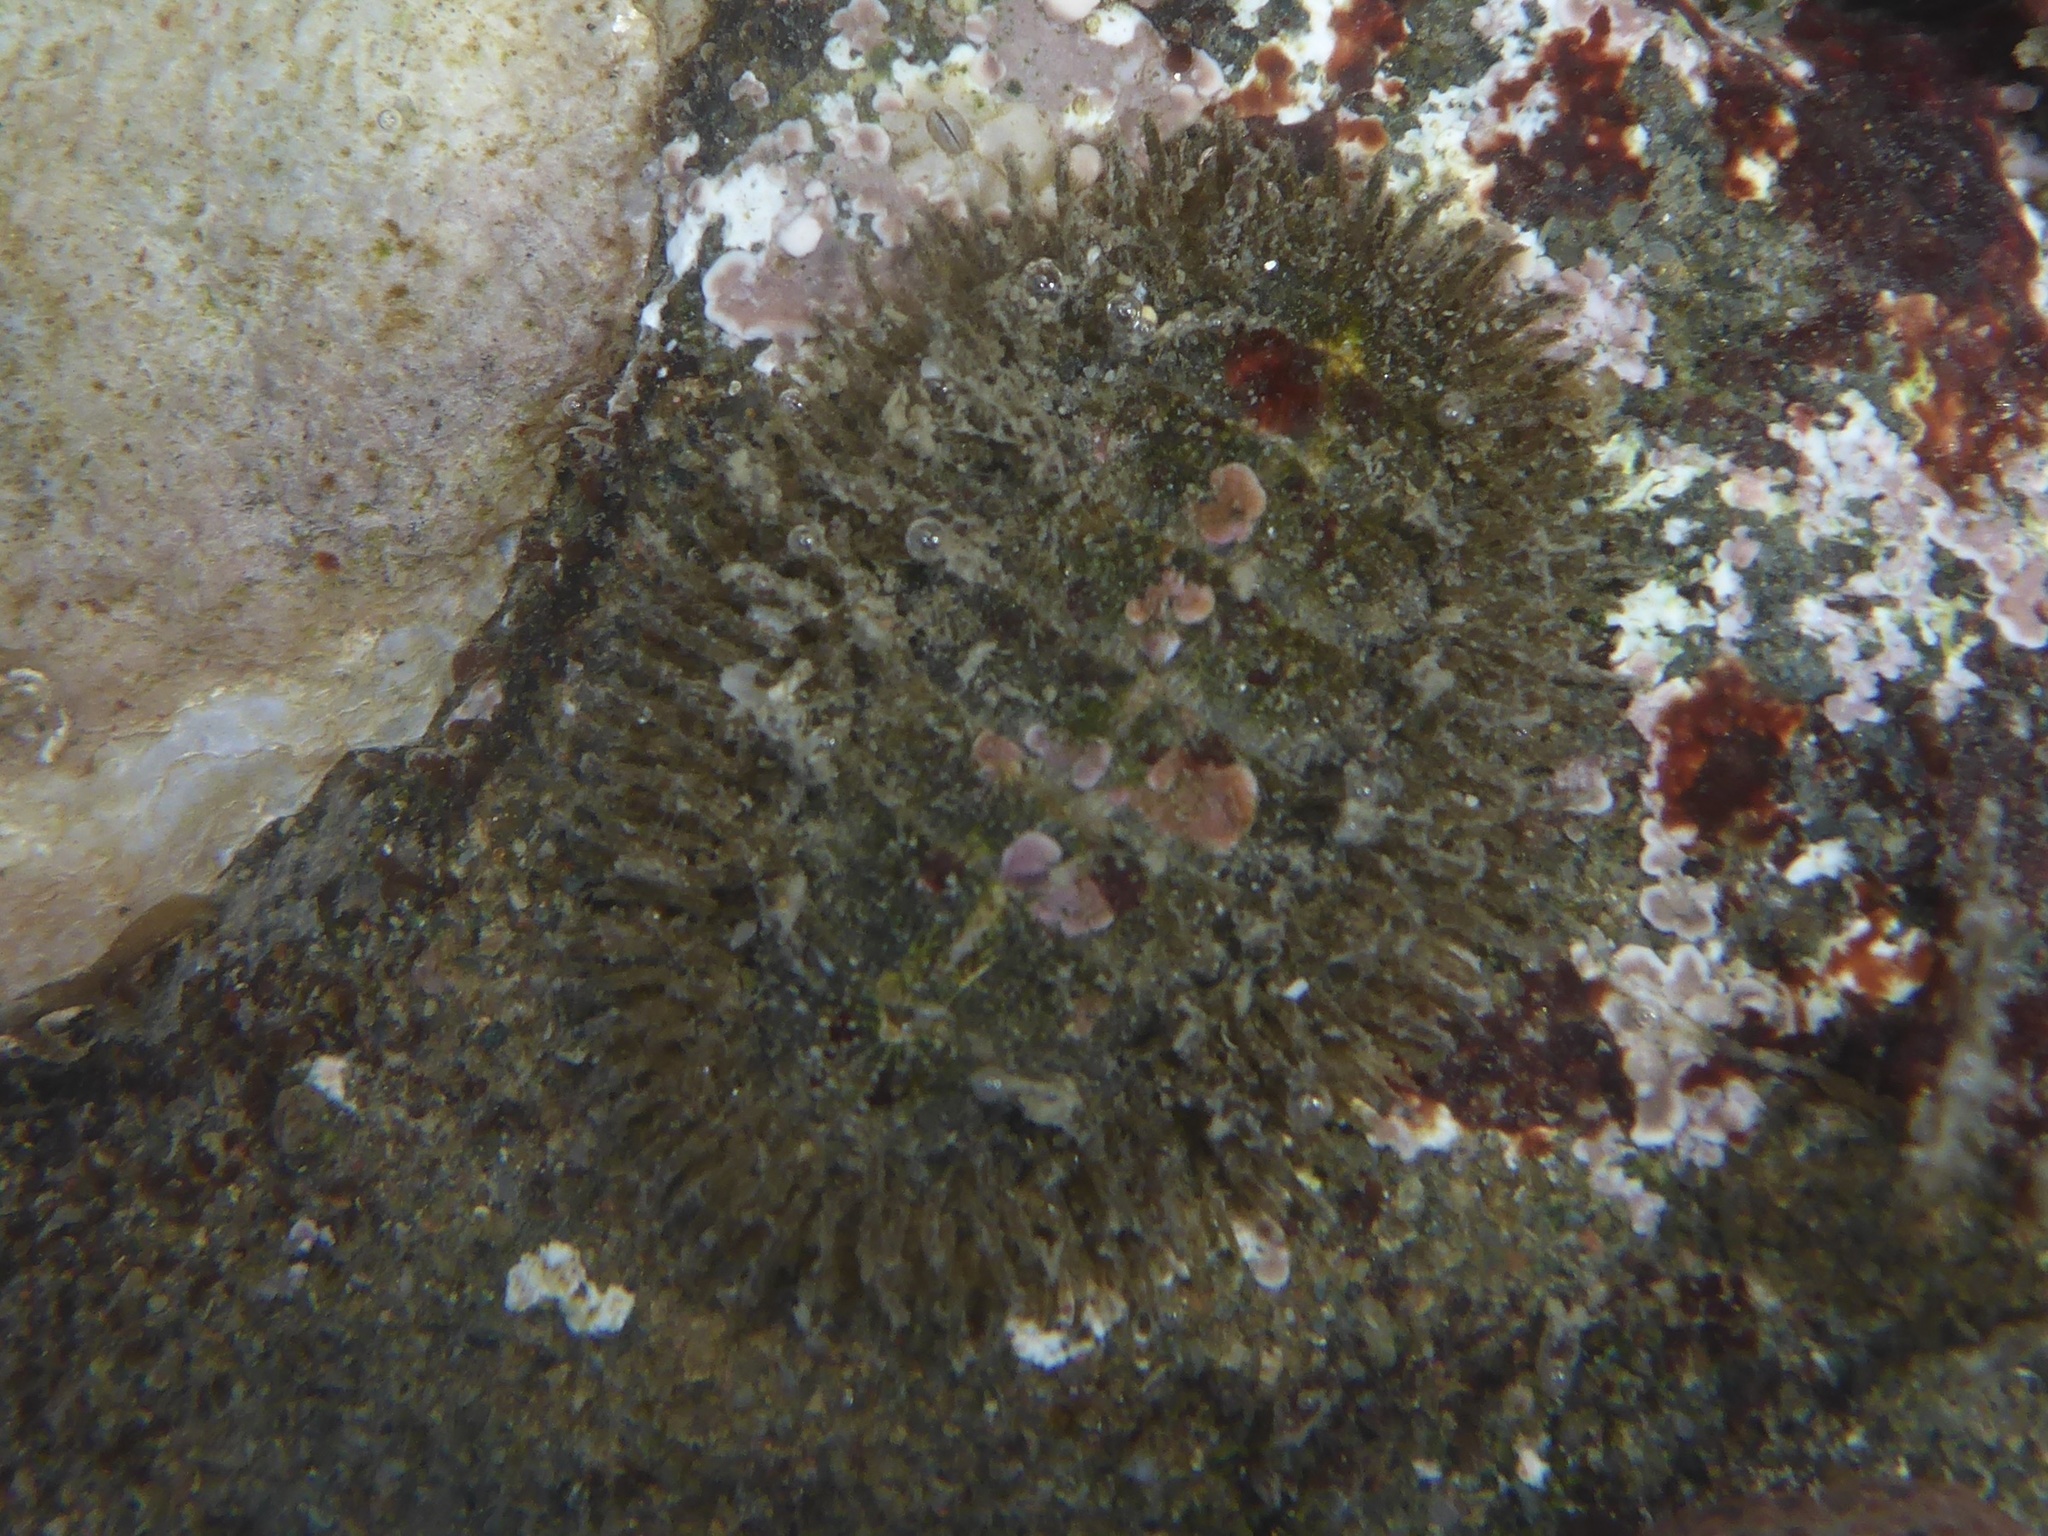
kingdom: Animalia
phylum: Mollusca
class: Polyplacophora
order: Chitonida
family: Mopaliidae
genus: Mopalia
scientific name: Mopalia muscosa
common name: Mossy chiton
